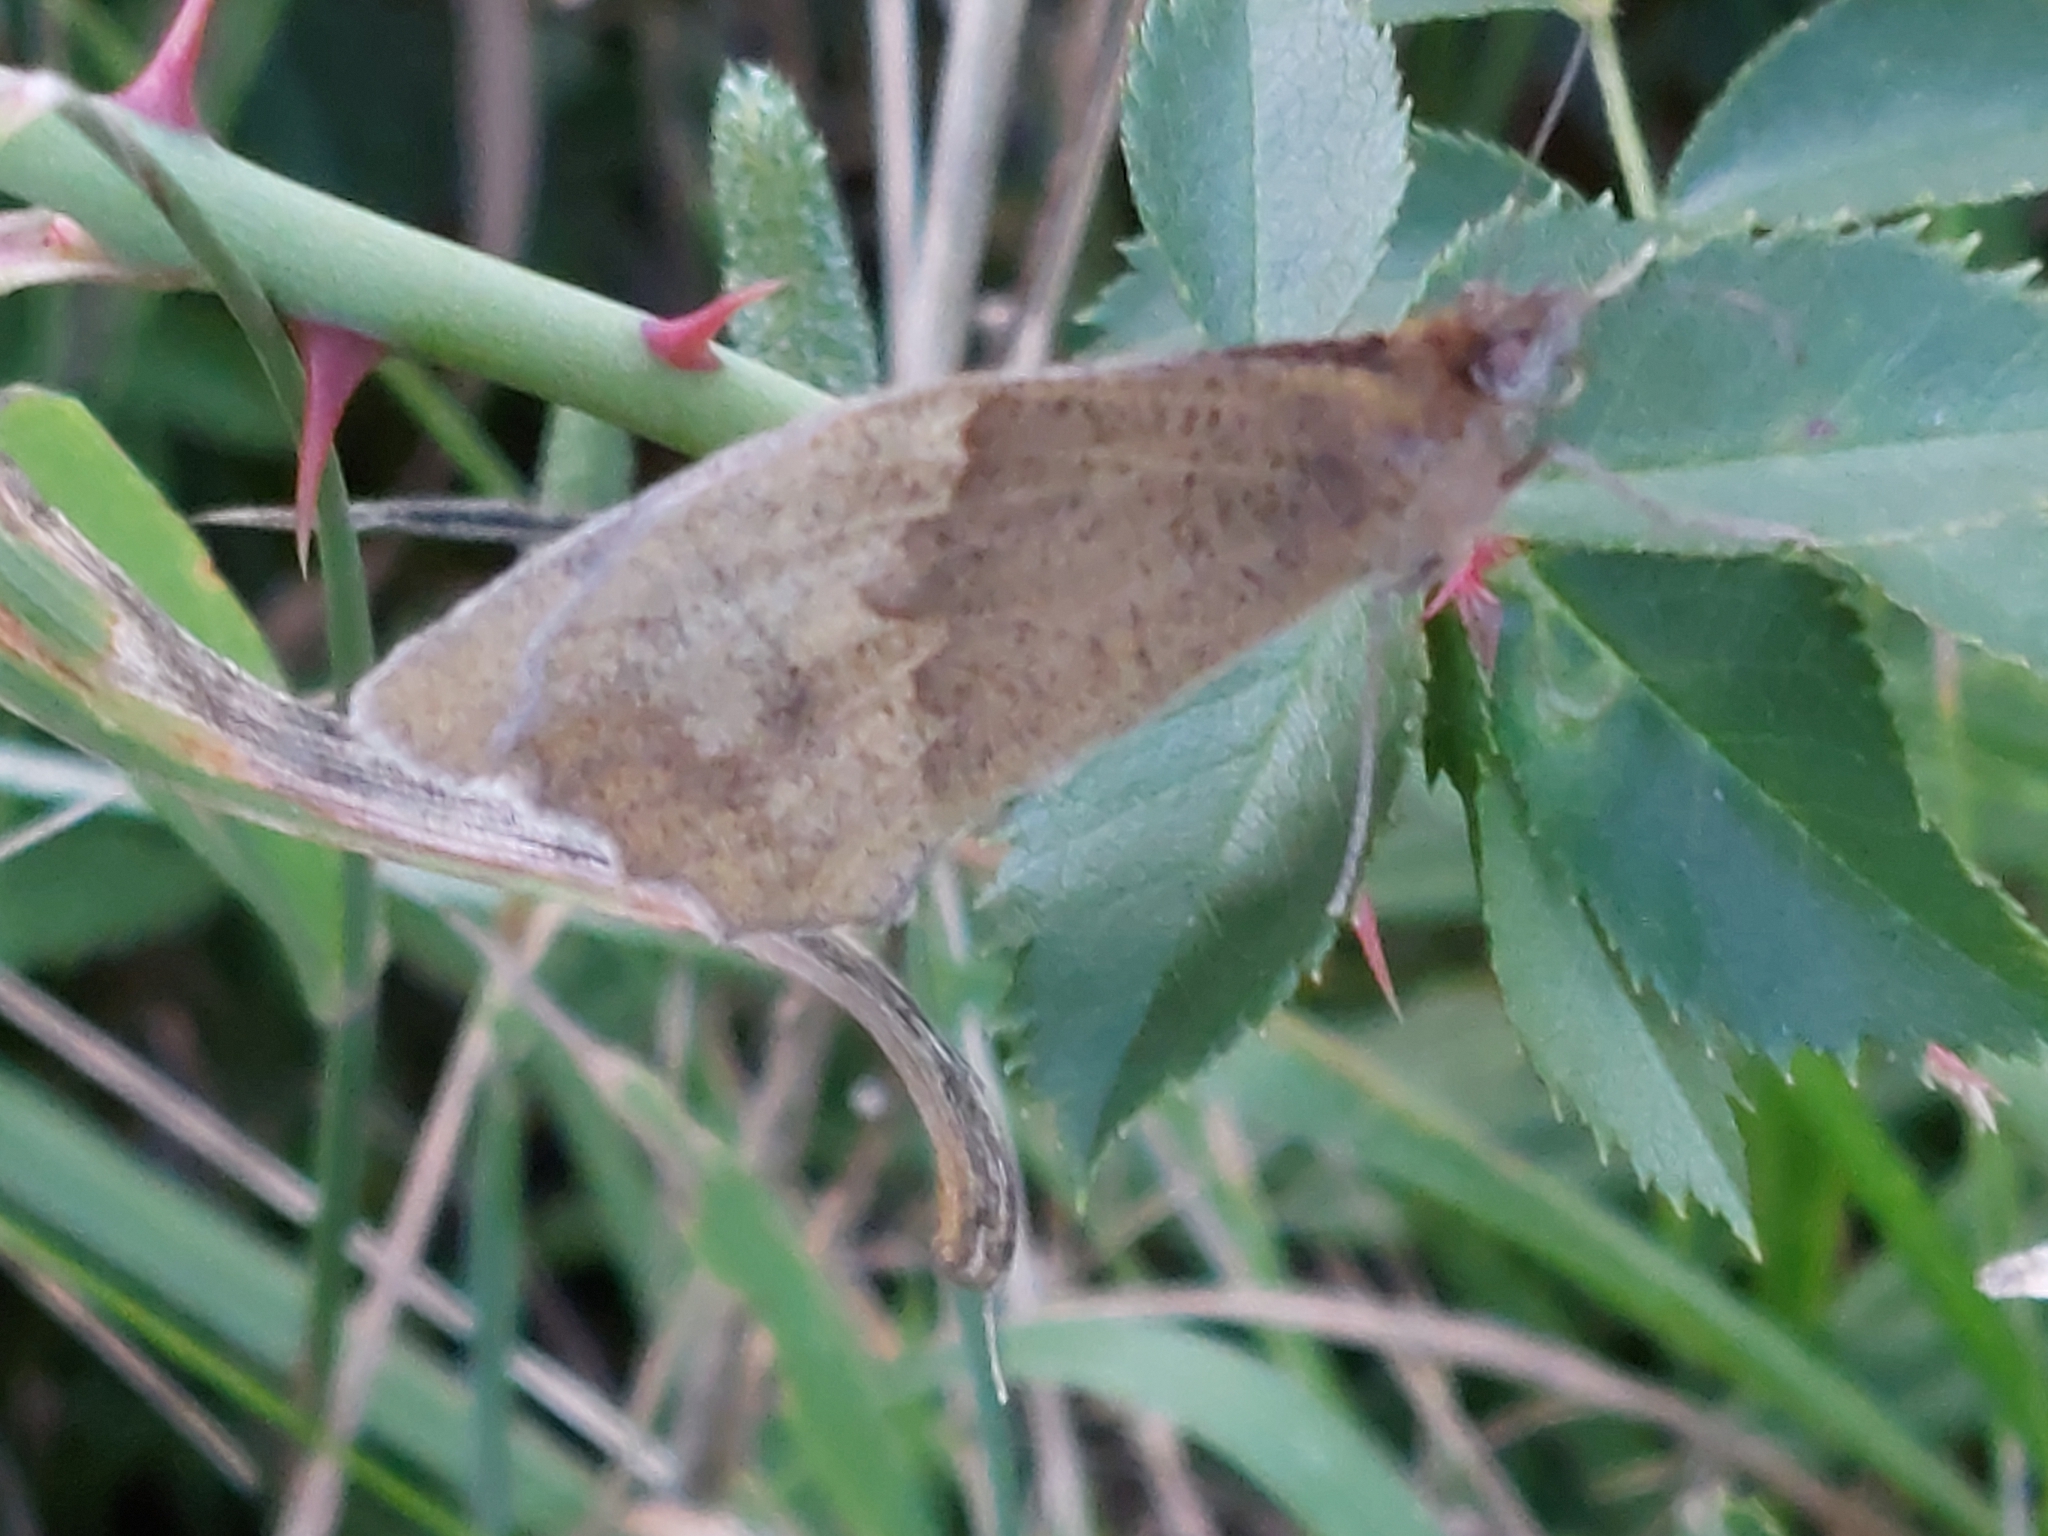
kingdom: Animalia
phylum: Arthropoda
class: Insecta
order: Lepidoptera
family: Nymphalidae
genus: Maniola
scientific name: Maniola jurtina
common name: Meadow brown
